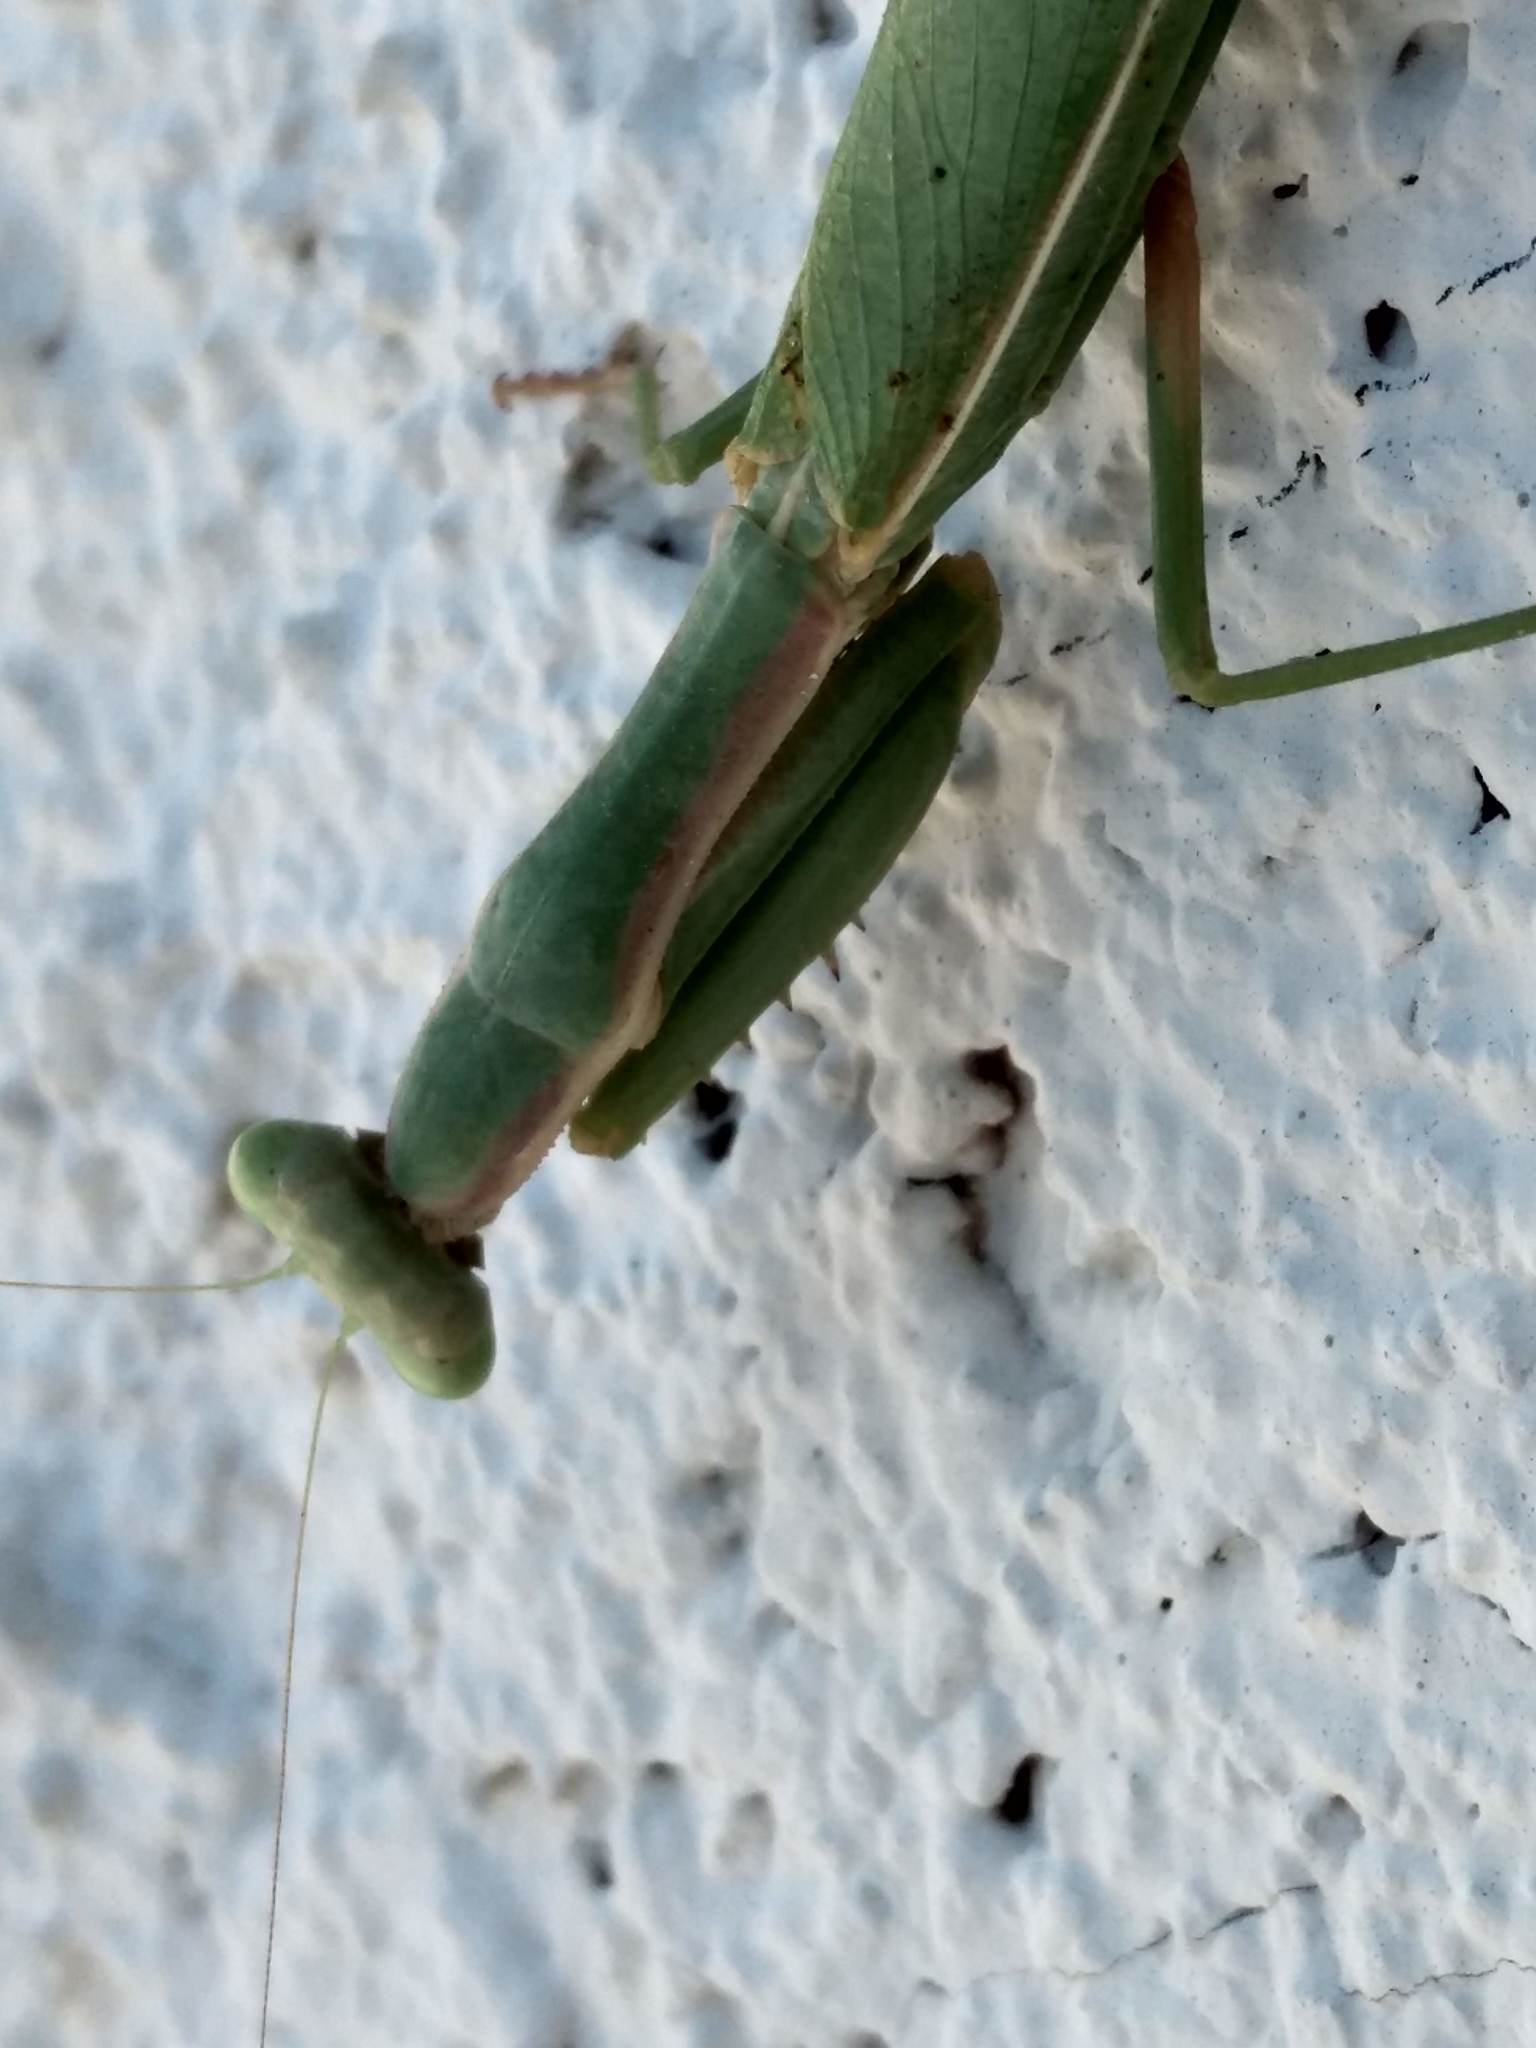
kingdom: Animalia
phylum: Arthropoda
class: Insecta
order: Mantodea
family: Eremiaphilidae
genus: Iris
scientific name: Iris oratoria
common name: Mediterranean mantis
